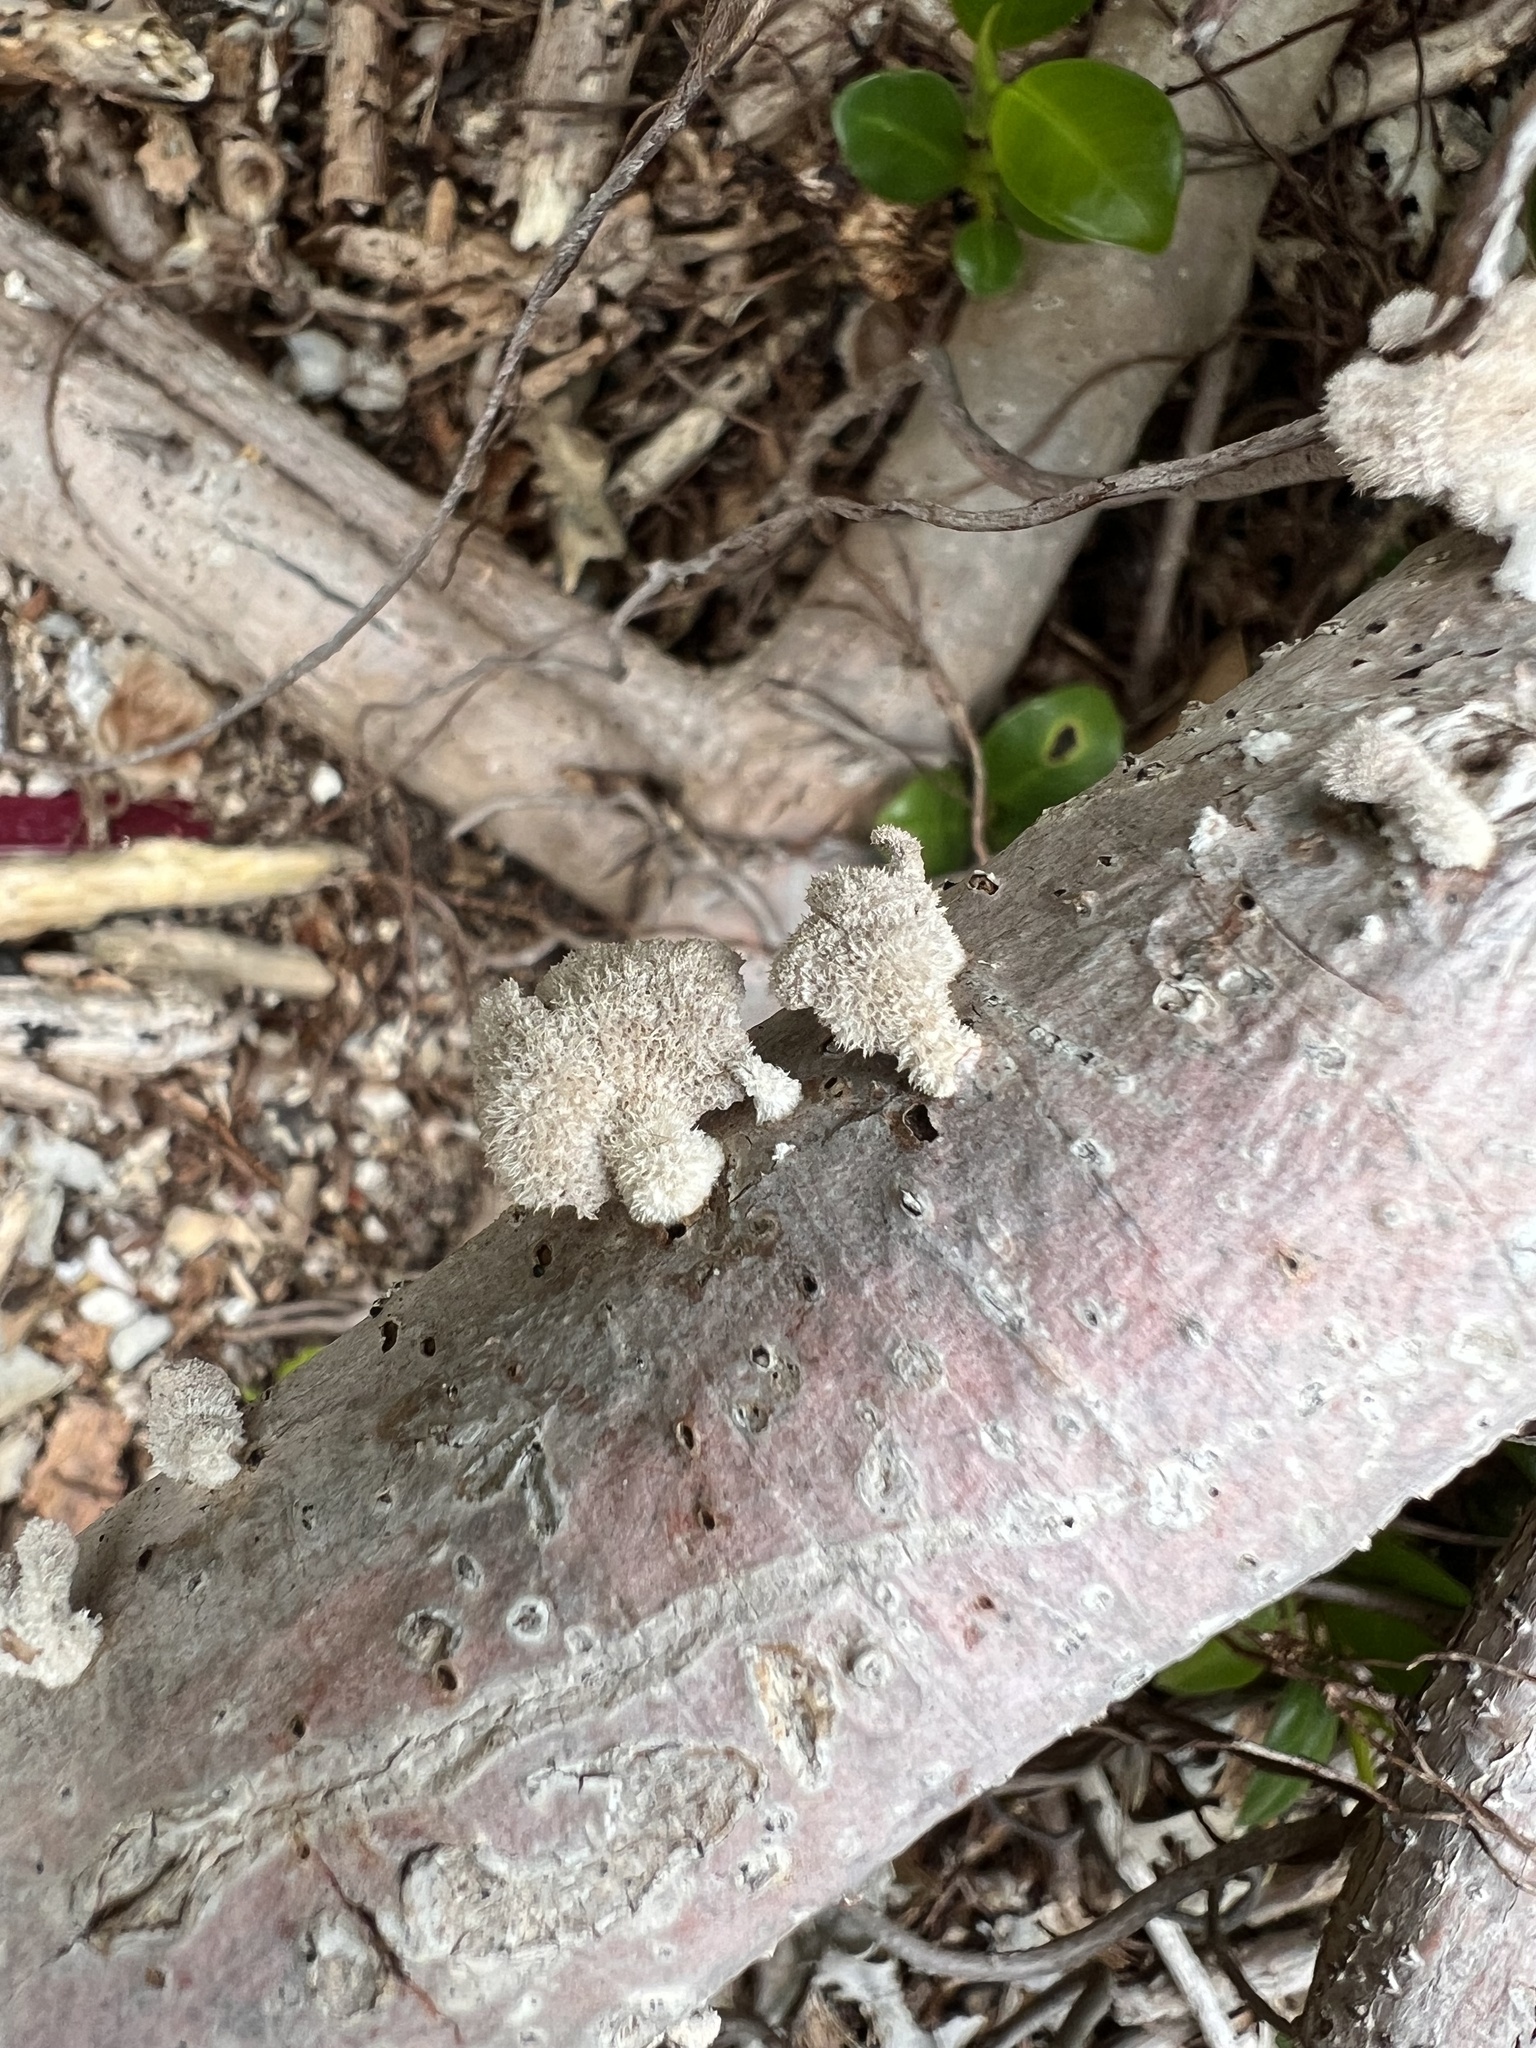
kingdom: Fungi
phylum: Basidiomycota
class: Agaricomycetes
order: Agaricales
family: Schizophyllaceae
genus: Schizophyllum
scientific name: Schizophyllum commune
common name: Common porecrust
